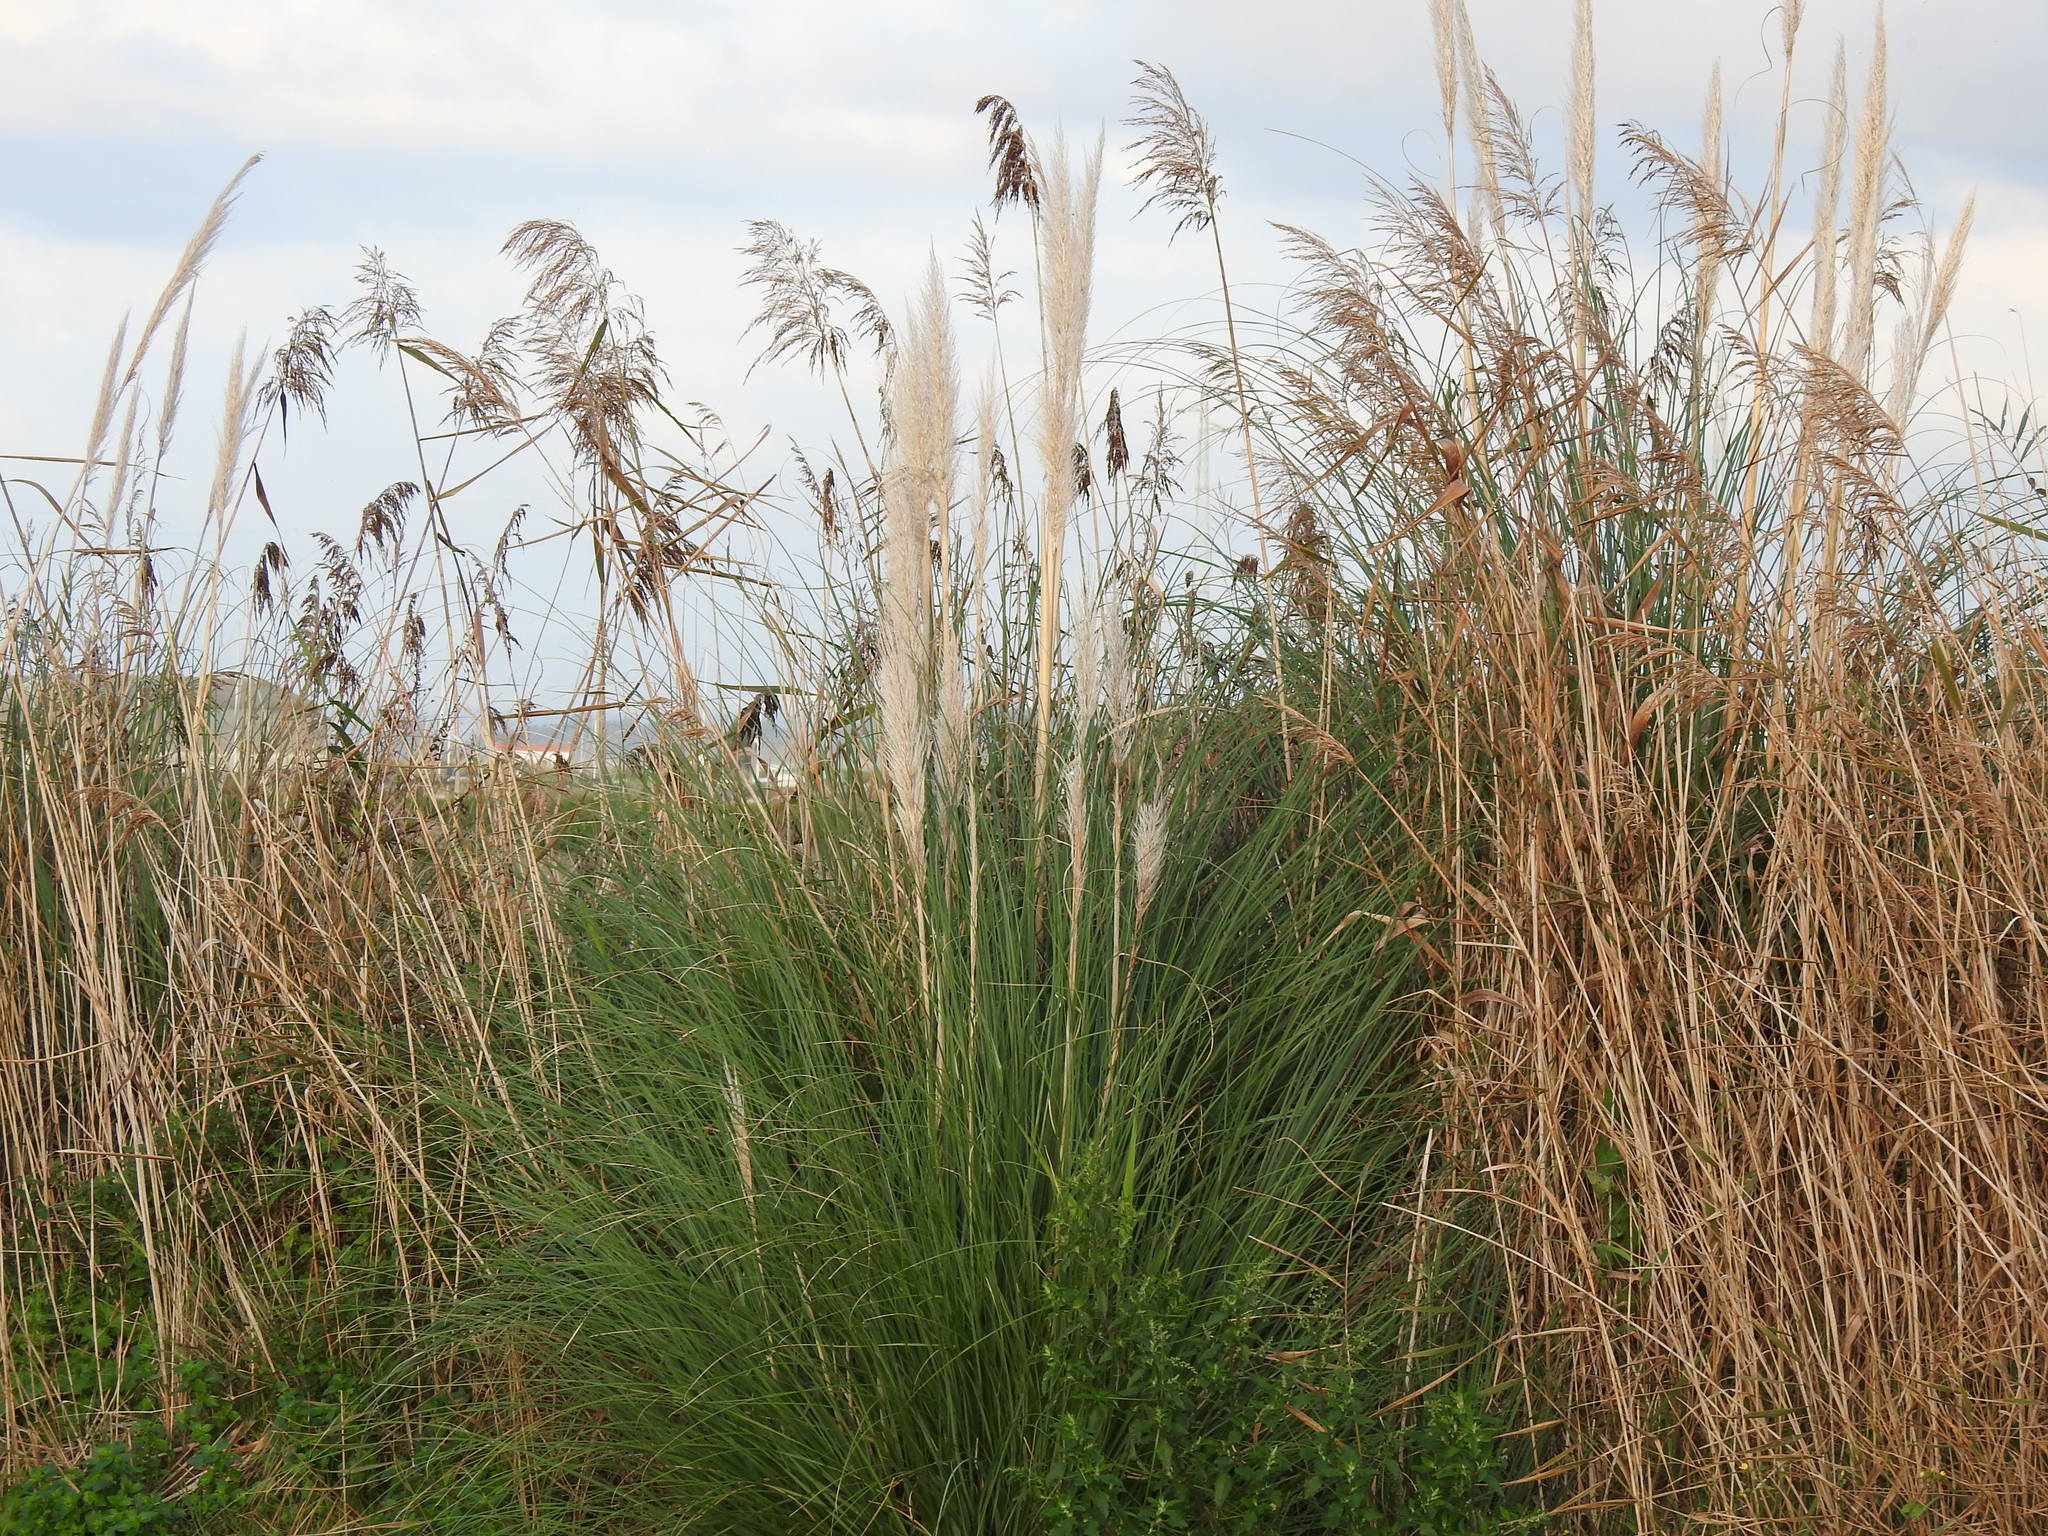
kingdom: Plantae
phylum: Tracheophyta
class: Liliopsida
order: Poales
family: Poaceae
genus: Cortaderia
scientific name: Cortaderia selloana
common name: Uruguayan pampas grass
